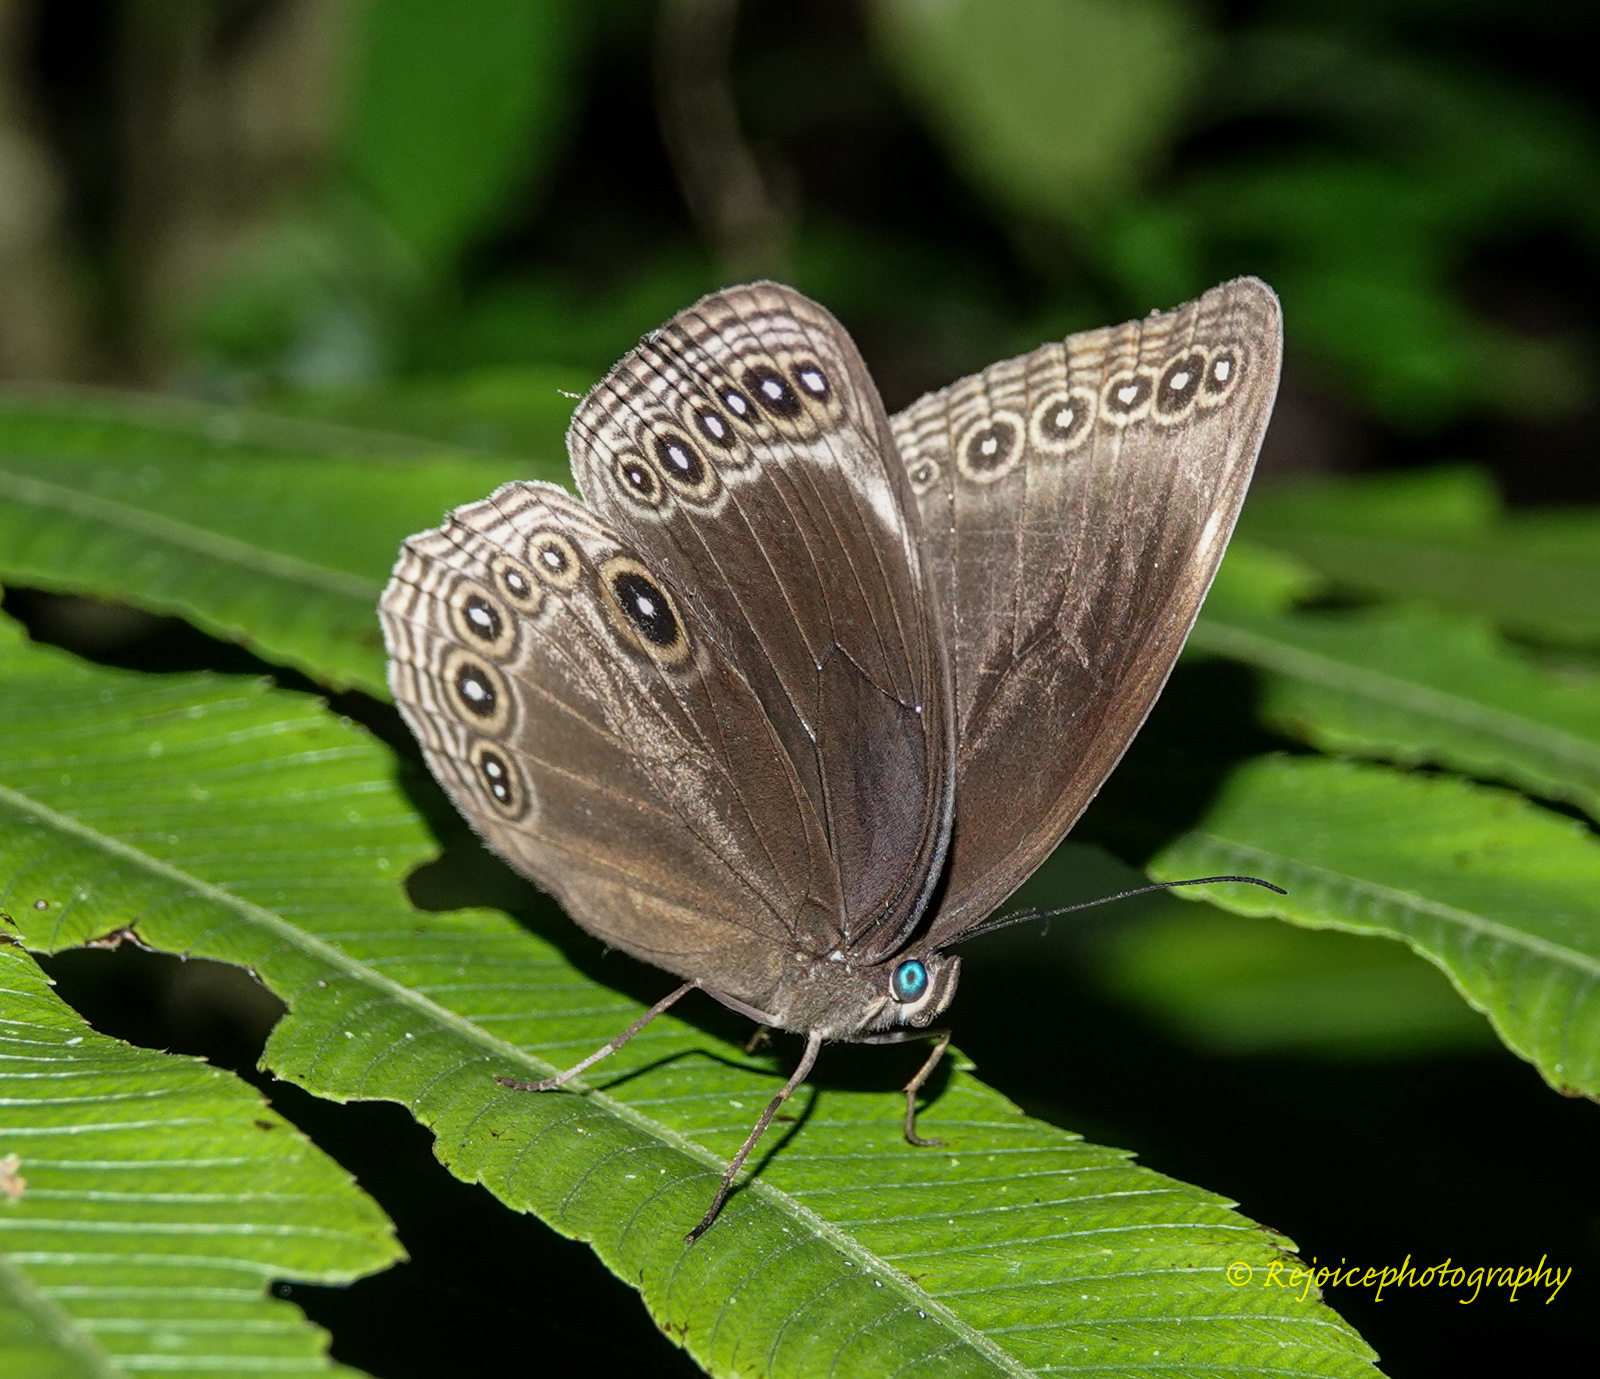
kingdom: Animalia
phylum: Arthropoda
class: Insecta
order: Lepidoptera
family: Nymphalidae
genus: Ethope
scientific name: Ethope himachala
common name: Dusky diadem
